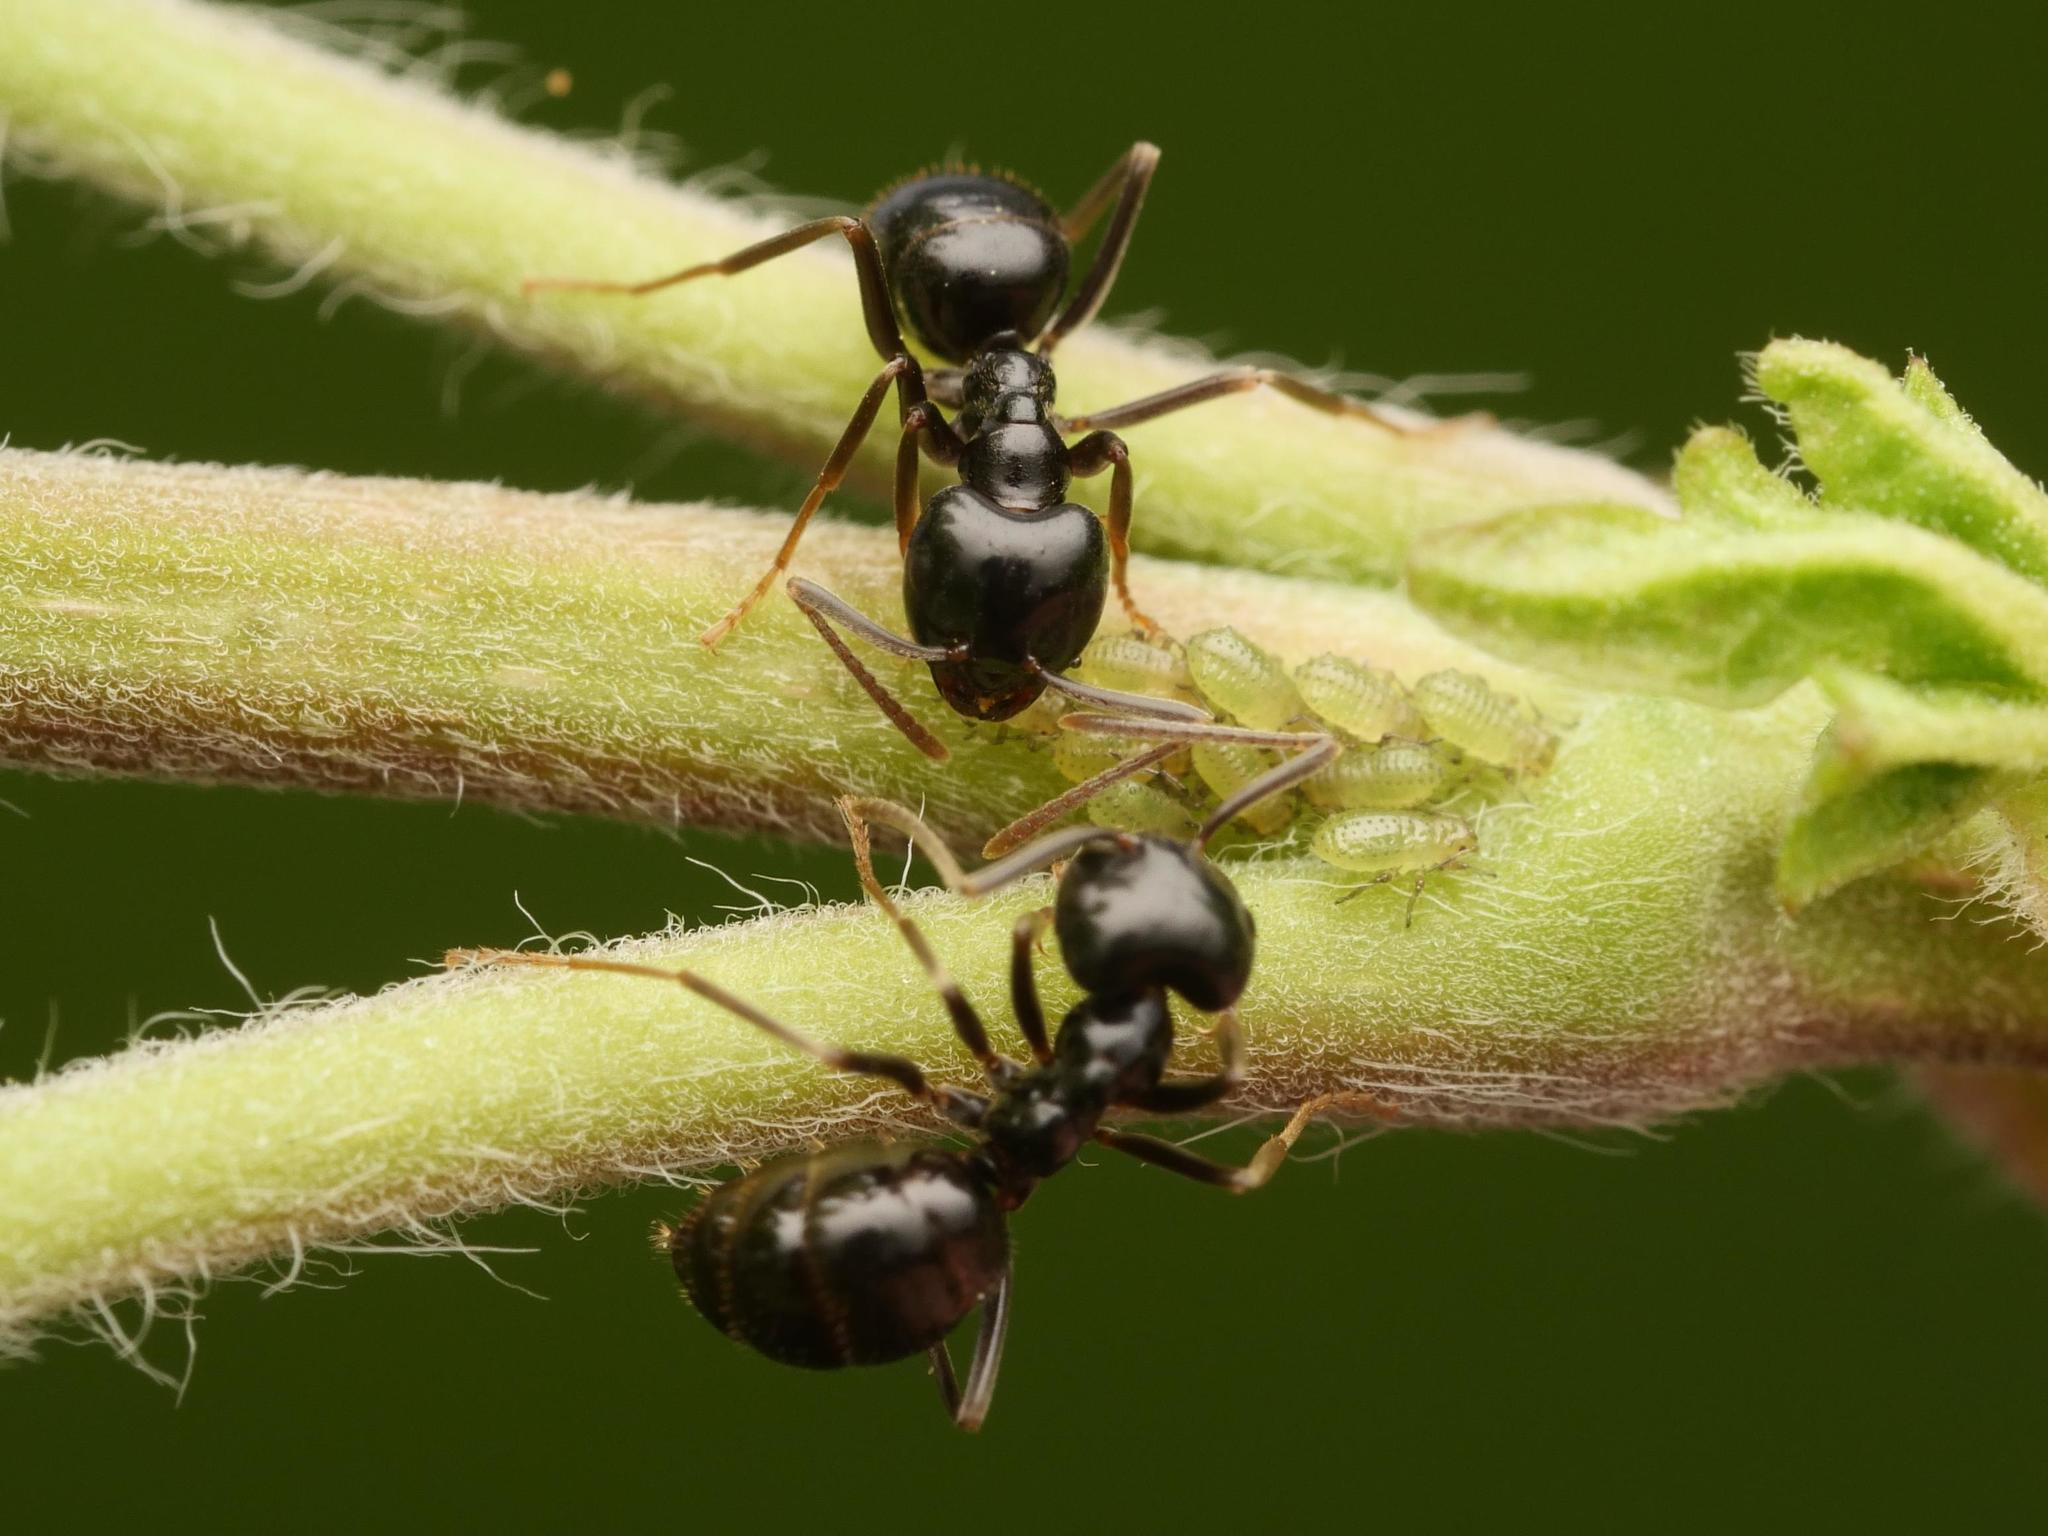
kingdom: Animalia
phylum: Arthropoda
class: Insecta
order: Hymenoptera
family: Formicidae
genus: Lasius
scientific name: Lasius fuliginosus
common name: Jet ant
